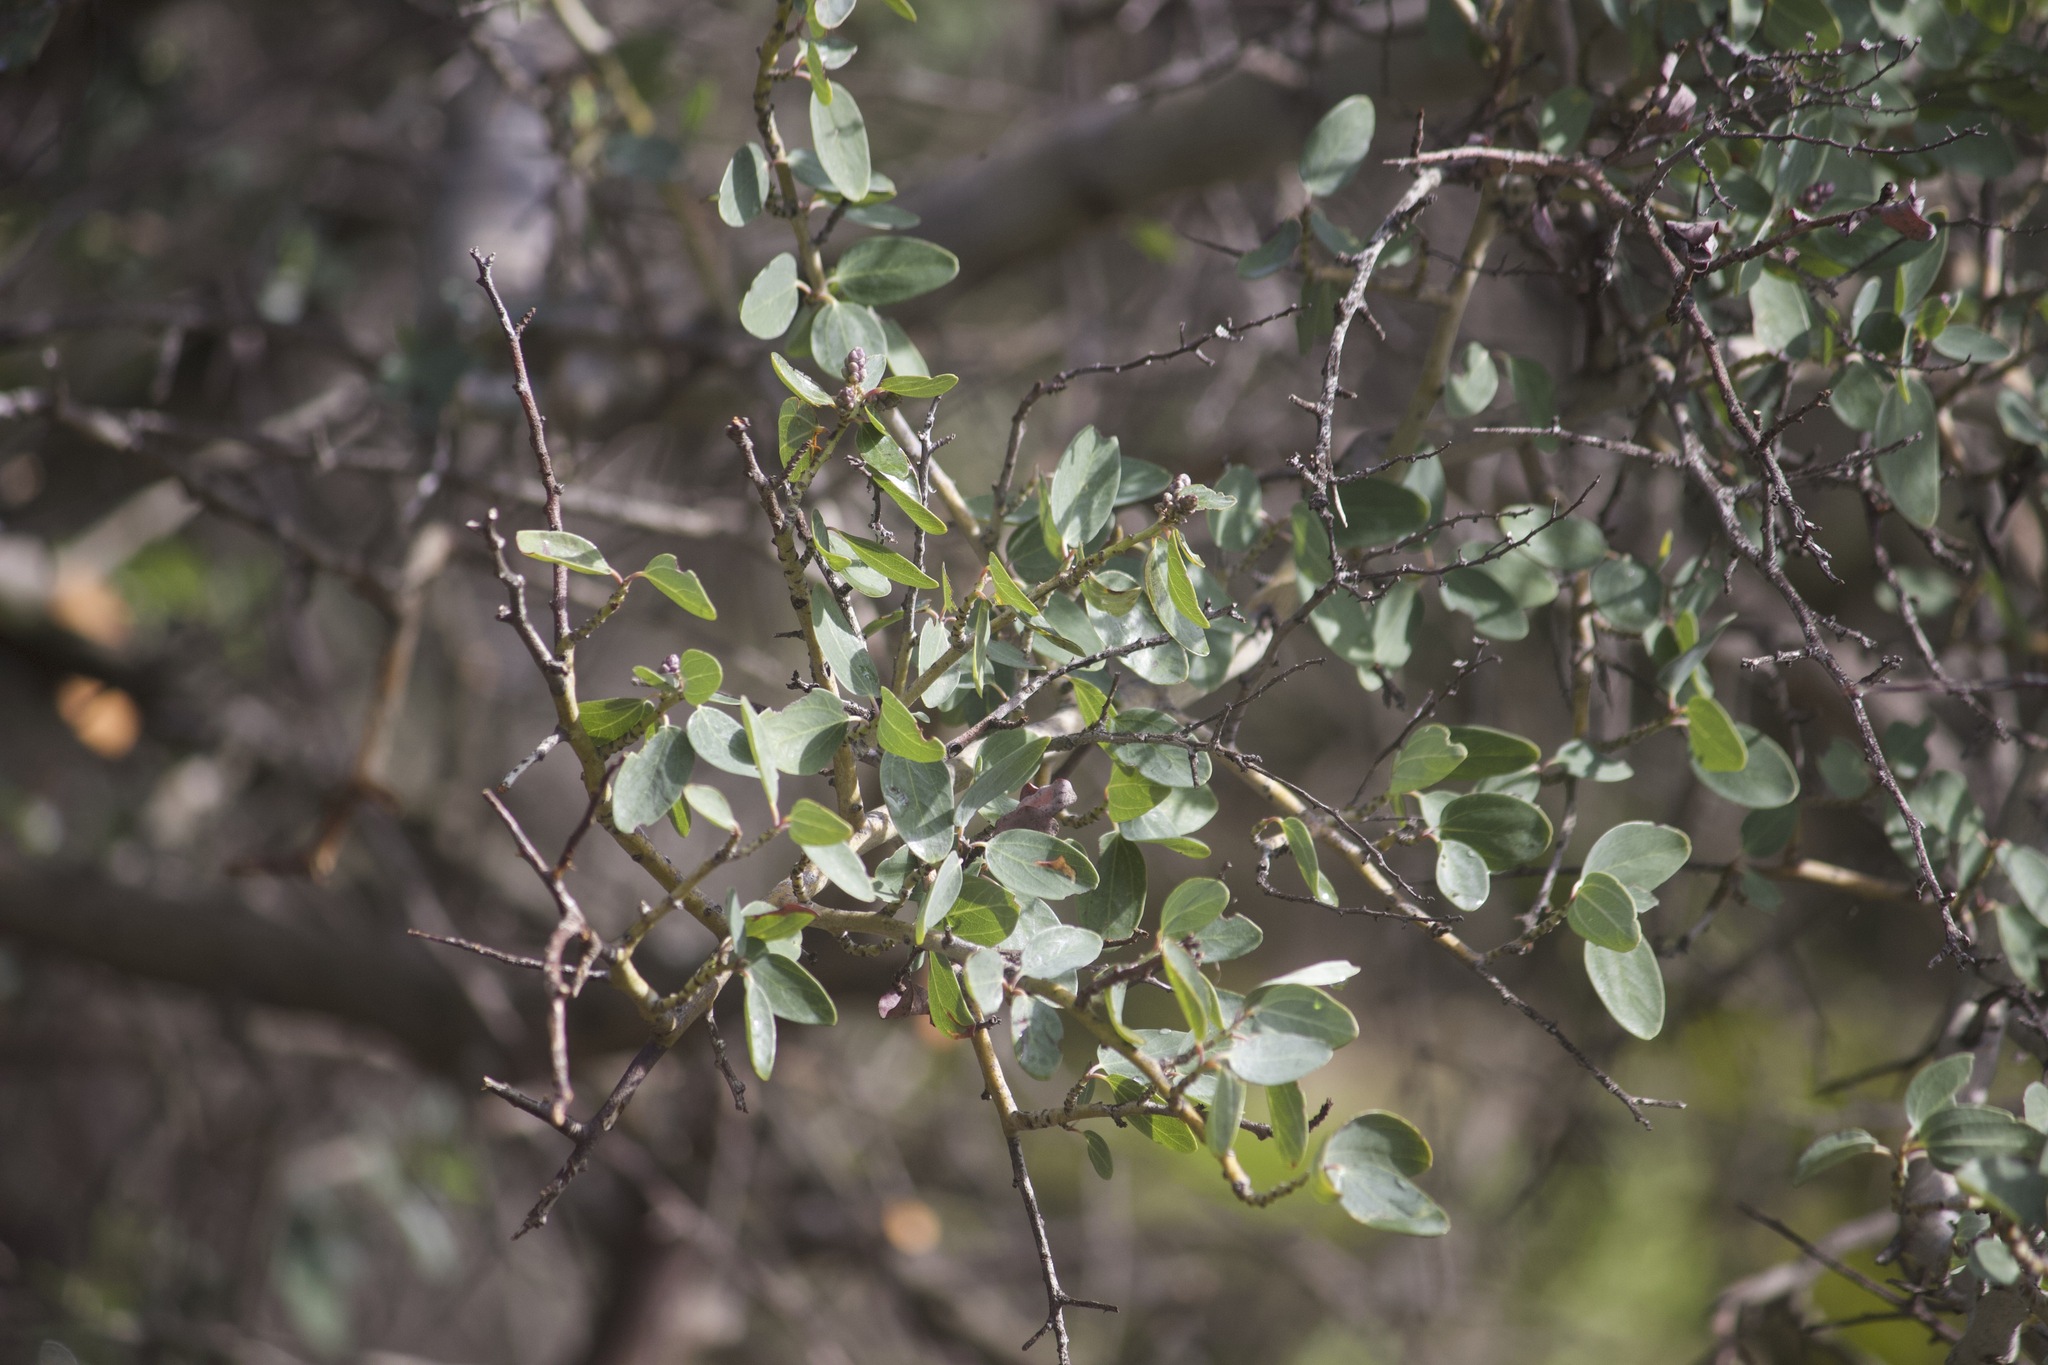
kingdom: Plantae
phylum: Tracheophyta
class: Magnoliopsida
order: Rosales
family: Rhamnaceae
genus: Ceanothus
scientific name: Ceanothus leucodermis
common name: Chaparral whitethorn
